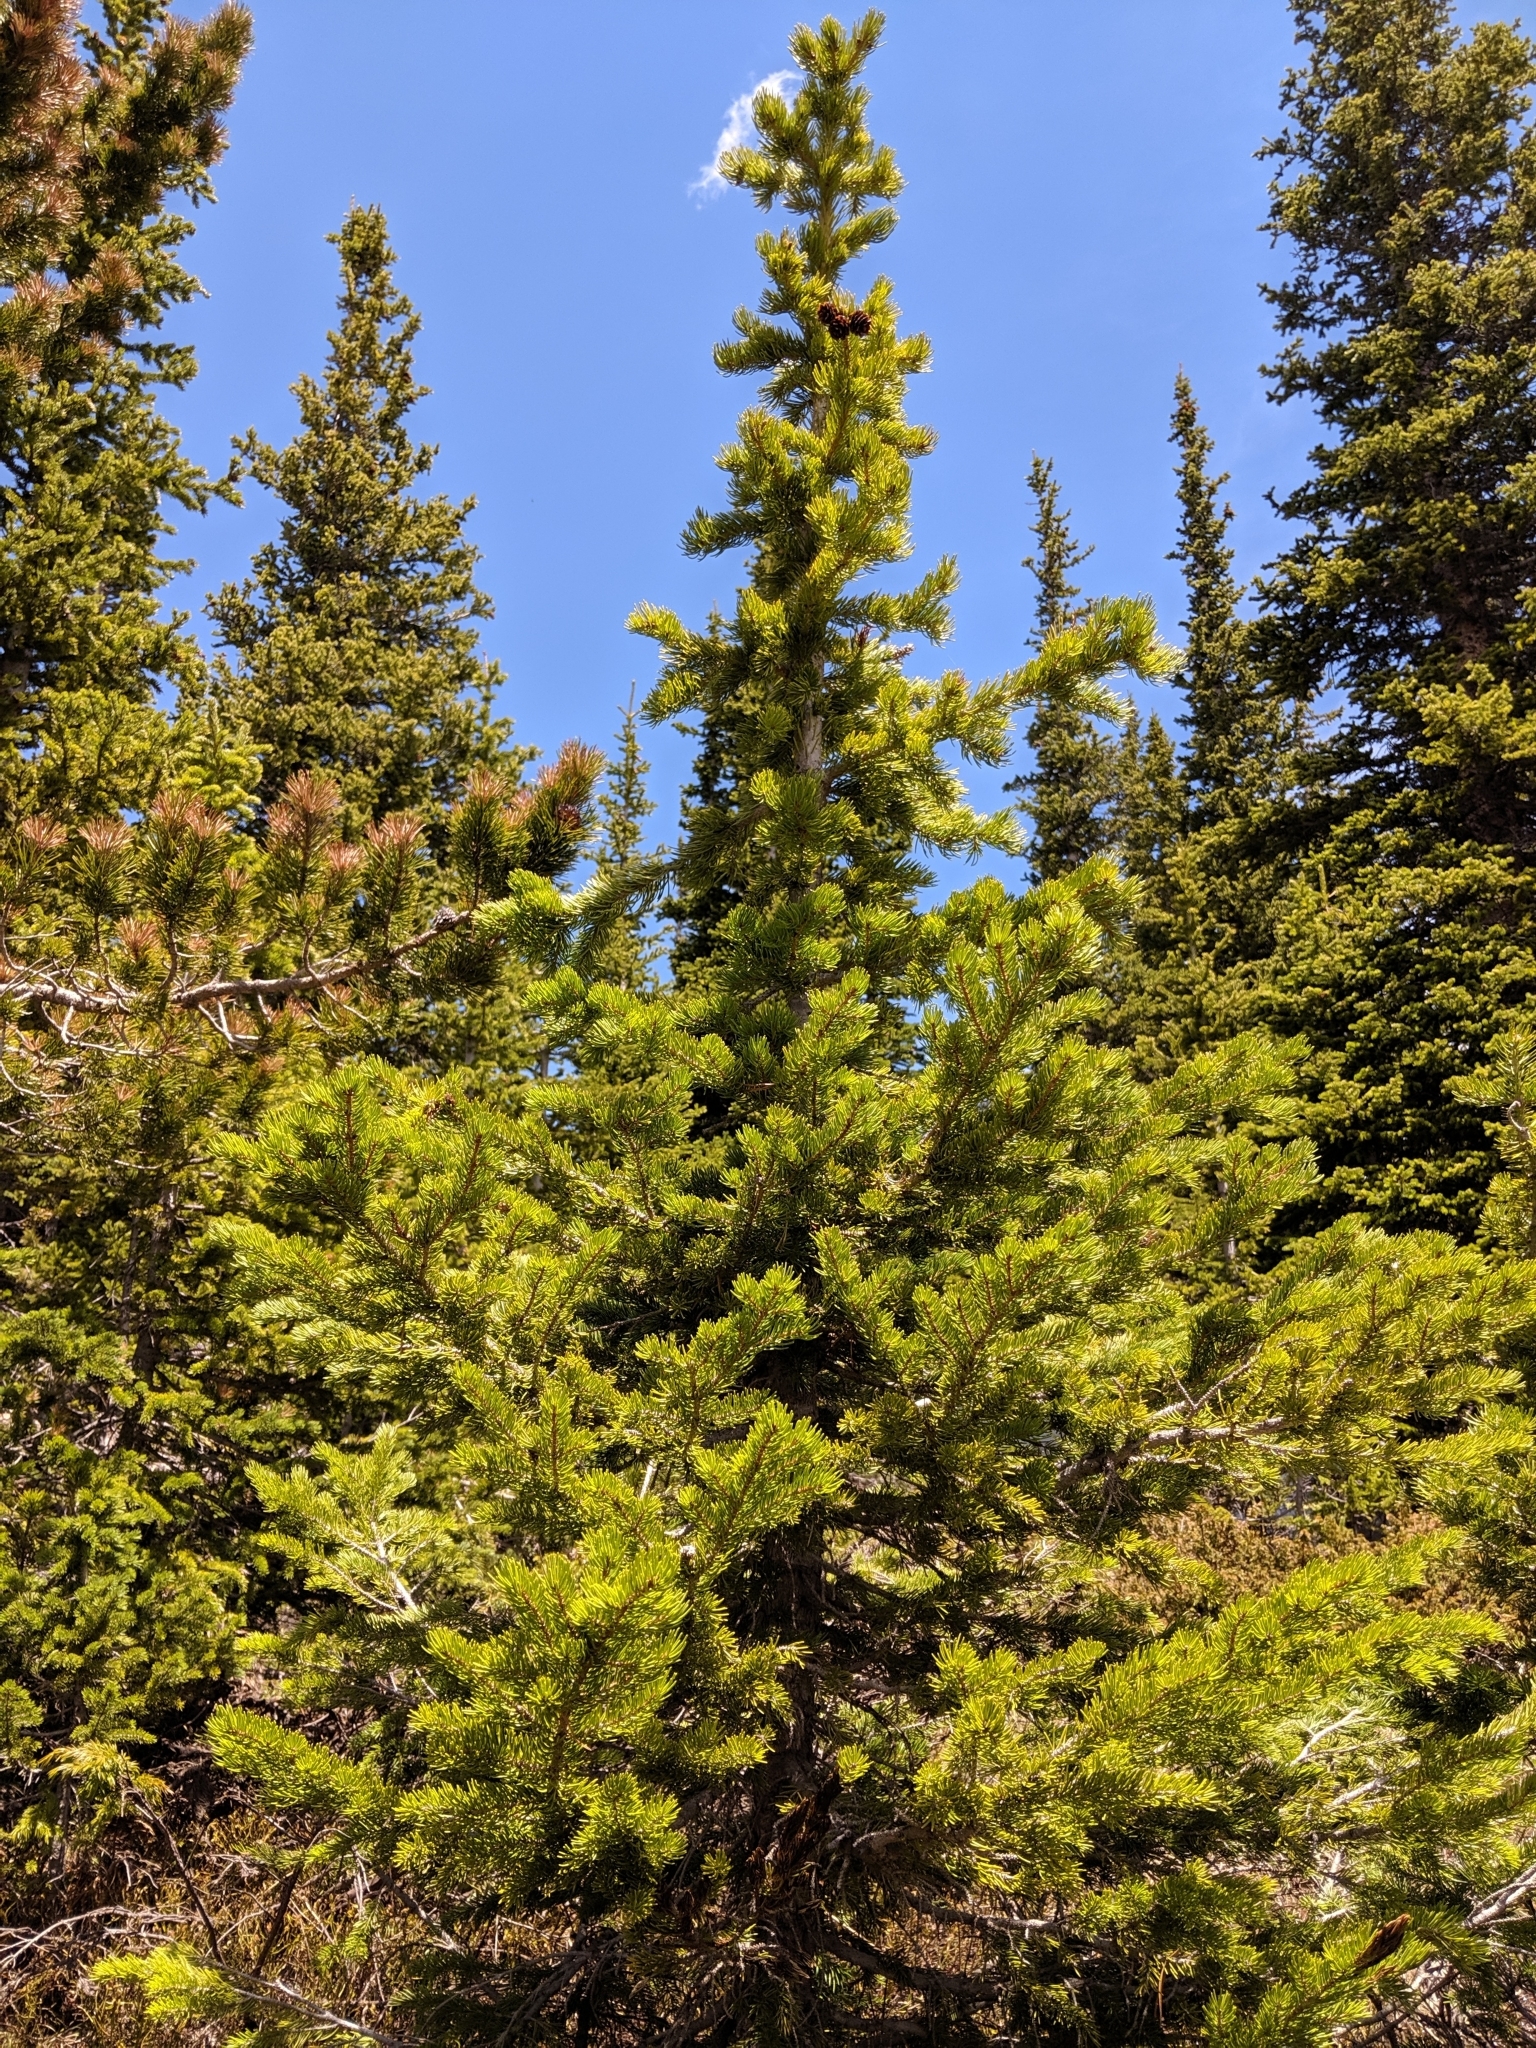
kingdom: Plantae
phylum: Tracheophyta
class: Pinopsida
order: Pinales
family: Pinaceae
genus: Picea
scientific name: Picea engelmannii
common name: Engelmann spruce
